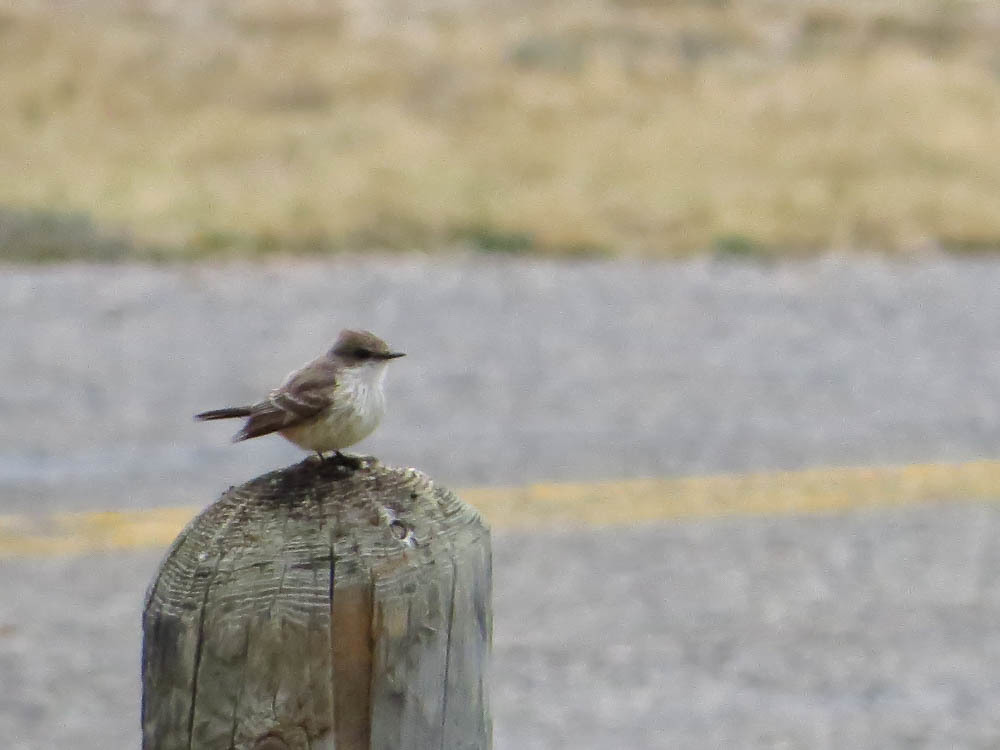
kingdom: Animalia
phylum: Chordata
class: Aves
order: Passeriformes
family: Tyrannidae
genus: Pyrocephalus
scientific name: Pyrocephalus rubinus
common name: Vermilion flycatcher
